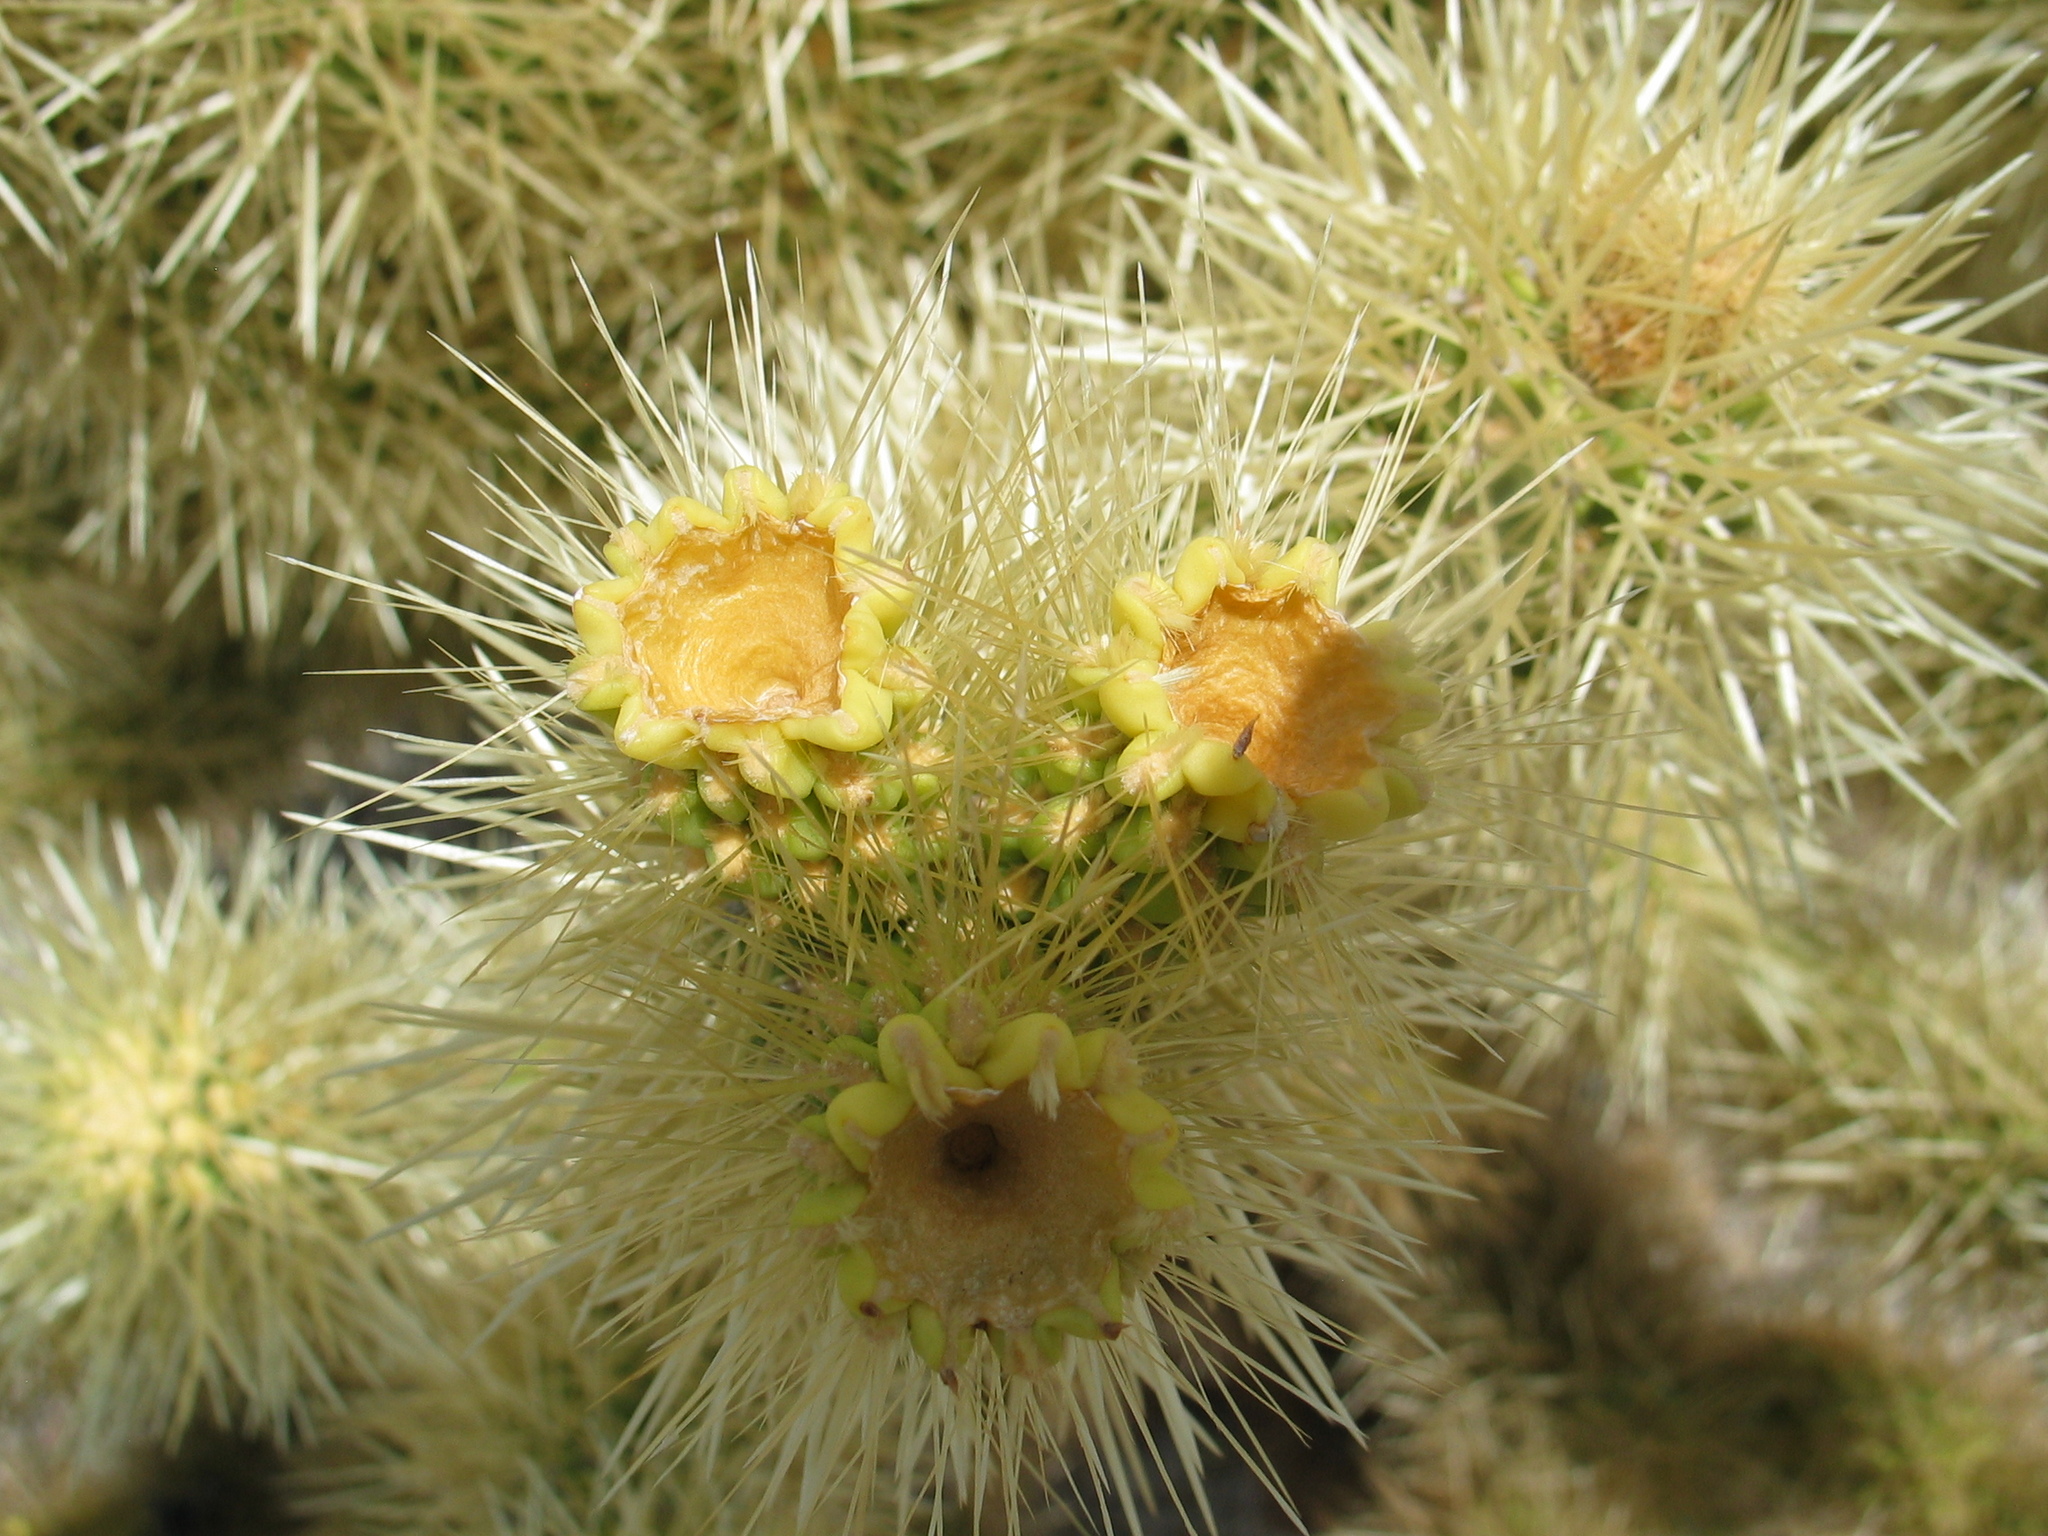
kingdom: Plantae
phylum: Tracheophyta
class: Magnoliopsida
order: Caryophyllales
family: Cactaceae
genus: Cylindropuntia
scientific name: Cylindropuntia fosbergii
